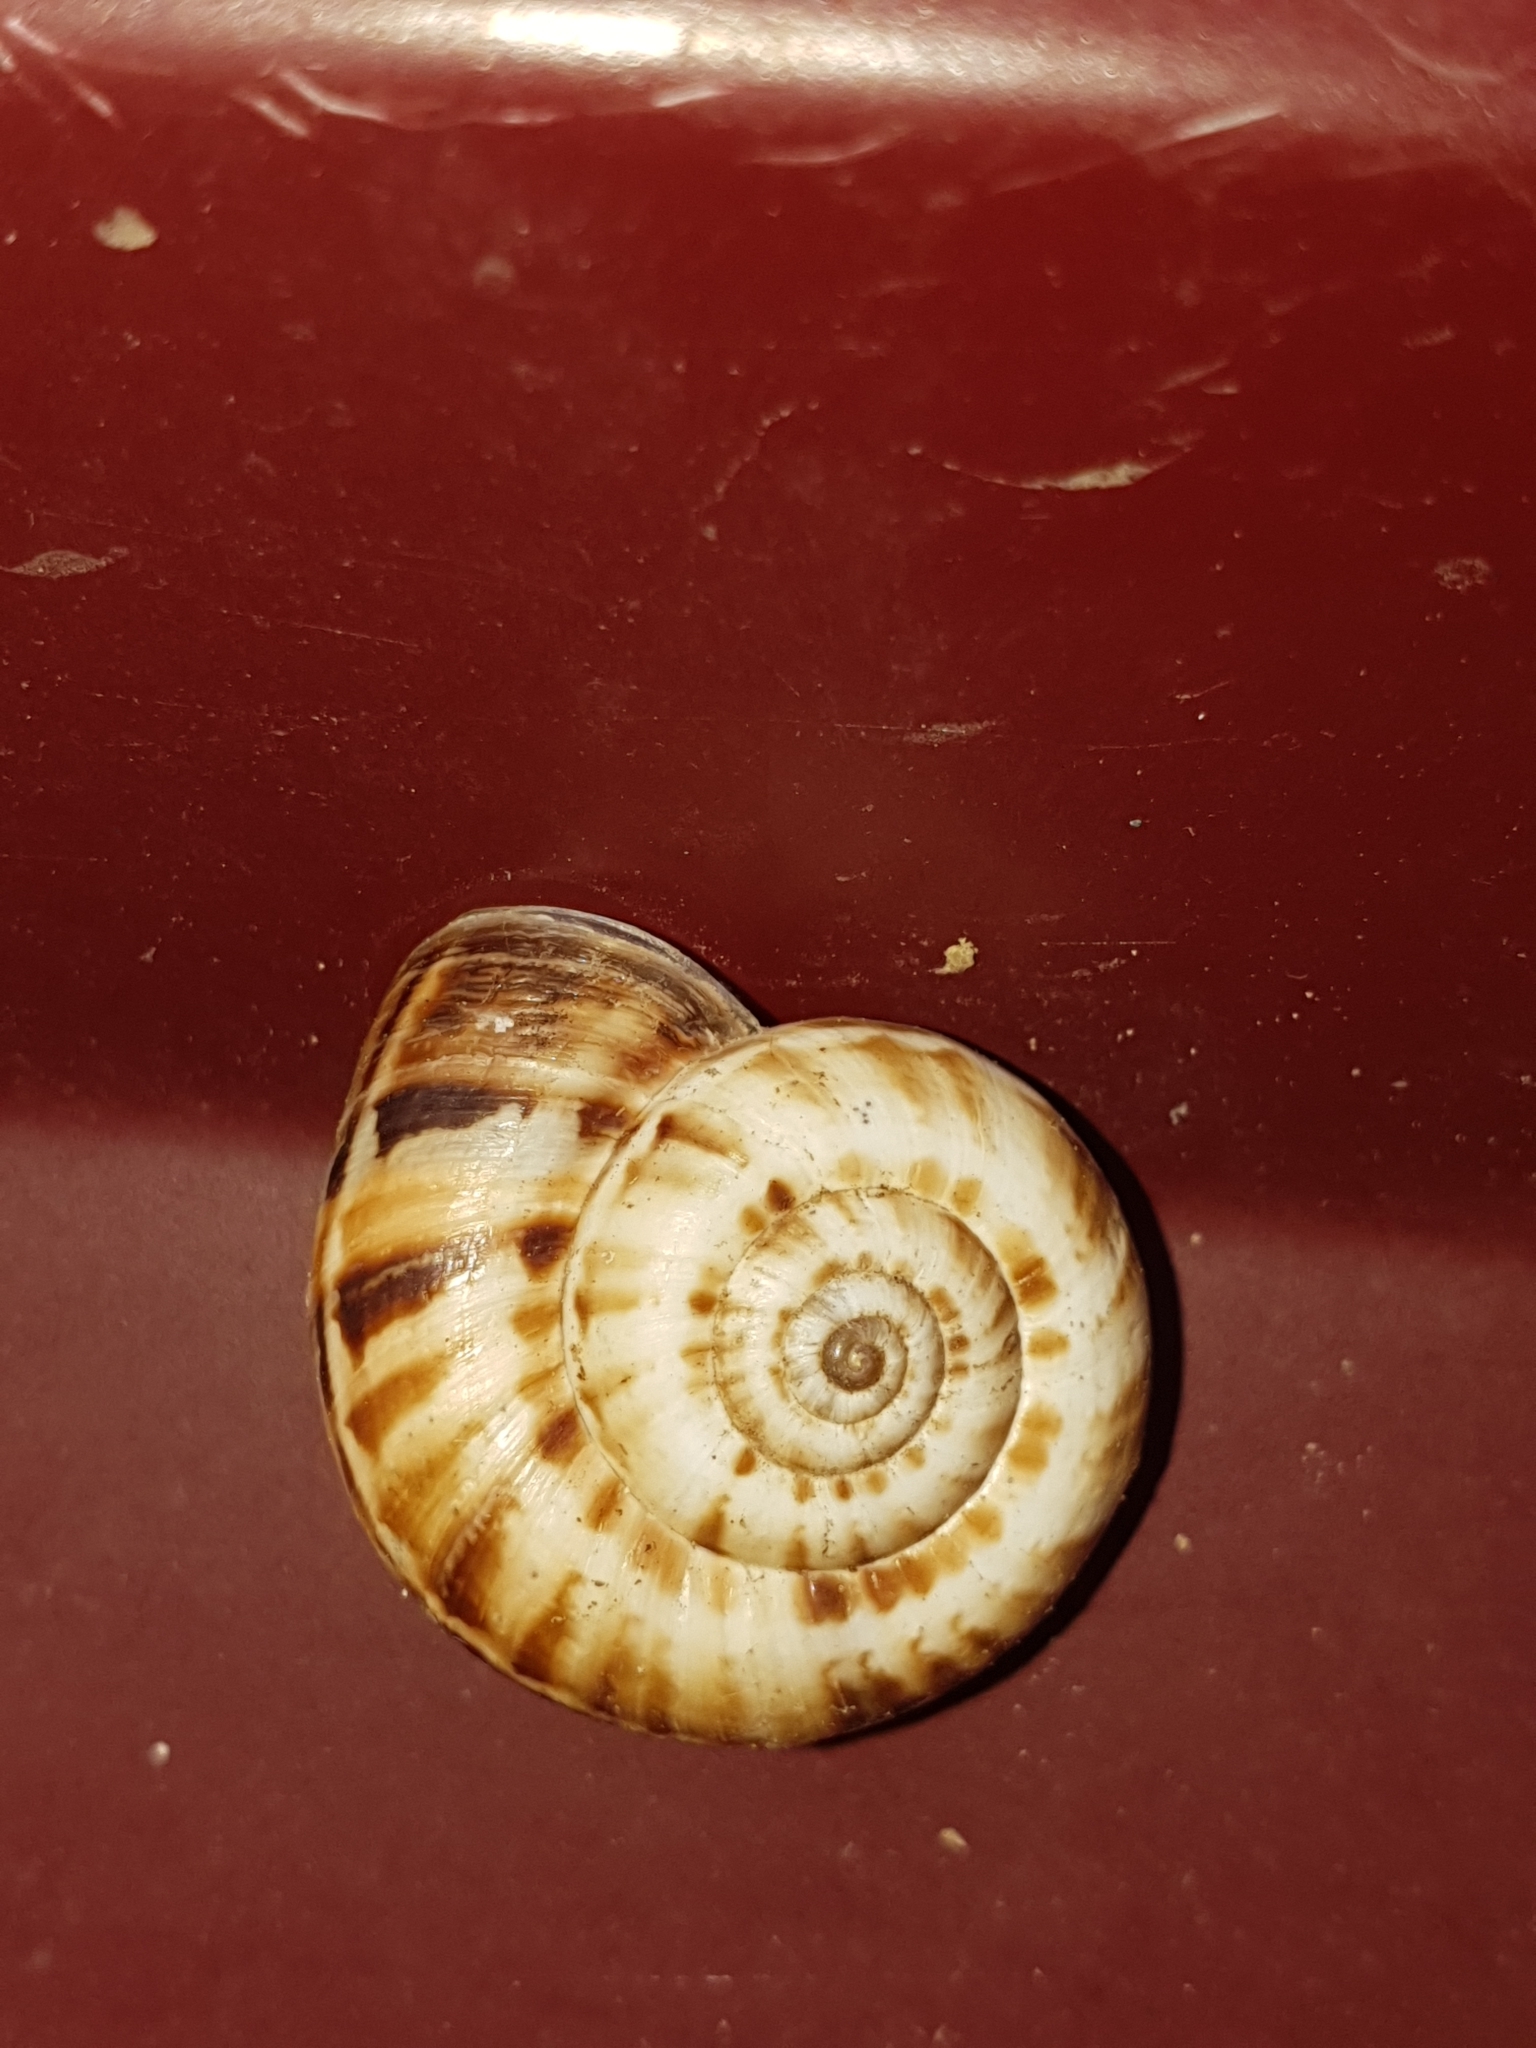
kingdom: Animalia
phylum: Mollusca
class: Gastropoda
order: Stylommatophora
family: Geomitridae
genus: Xeropicta
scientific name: Xeropicta derbentina
